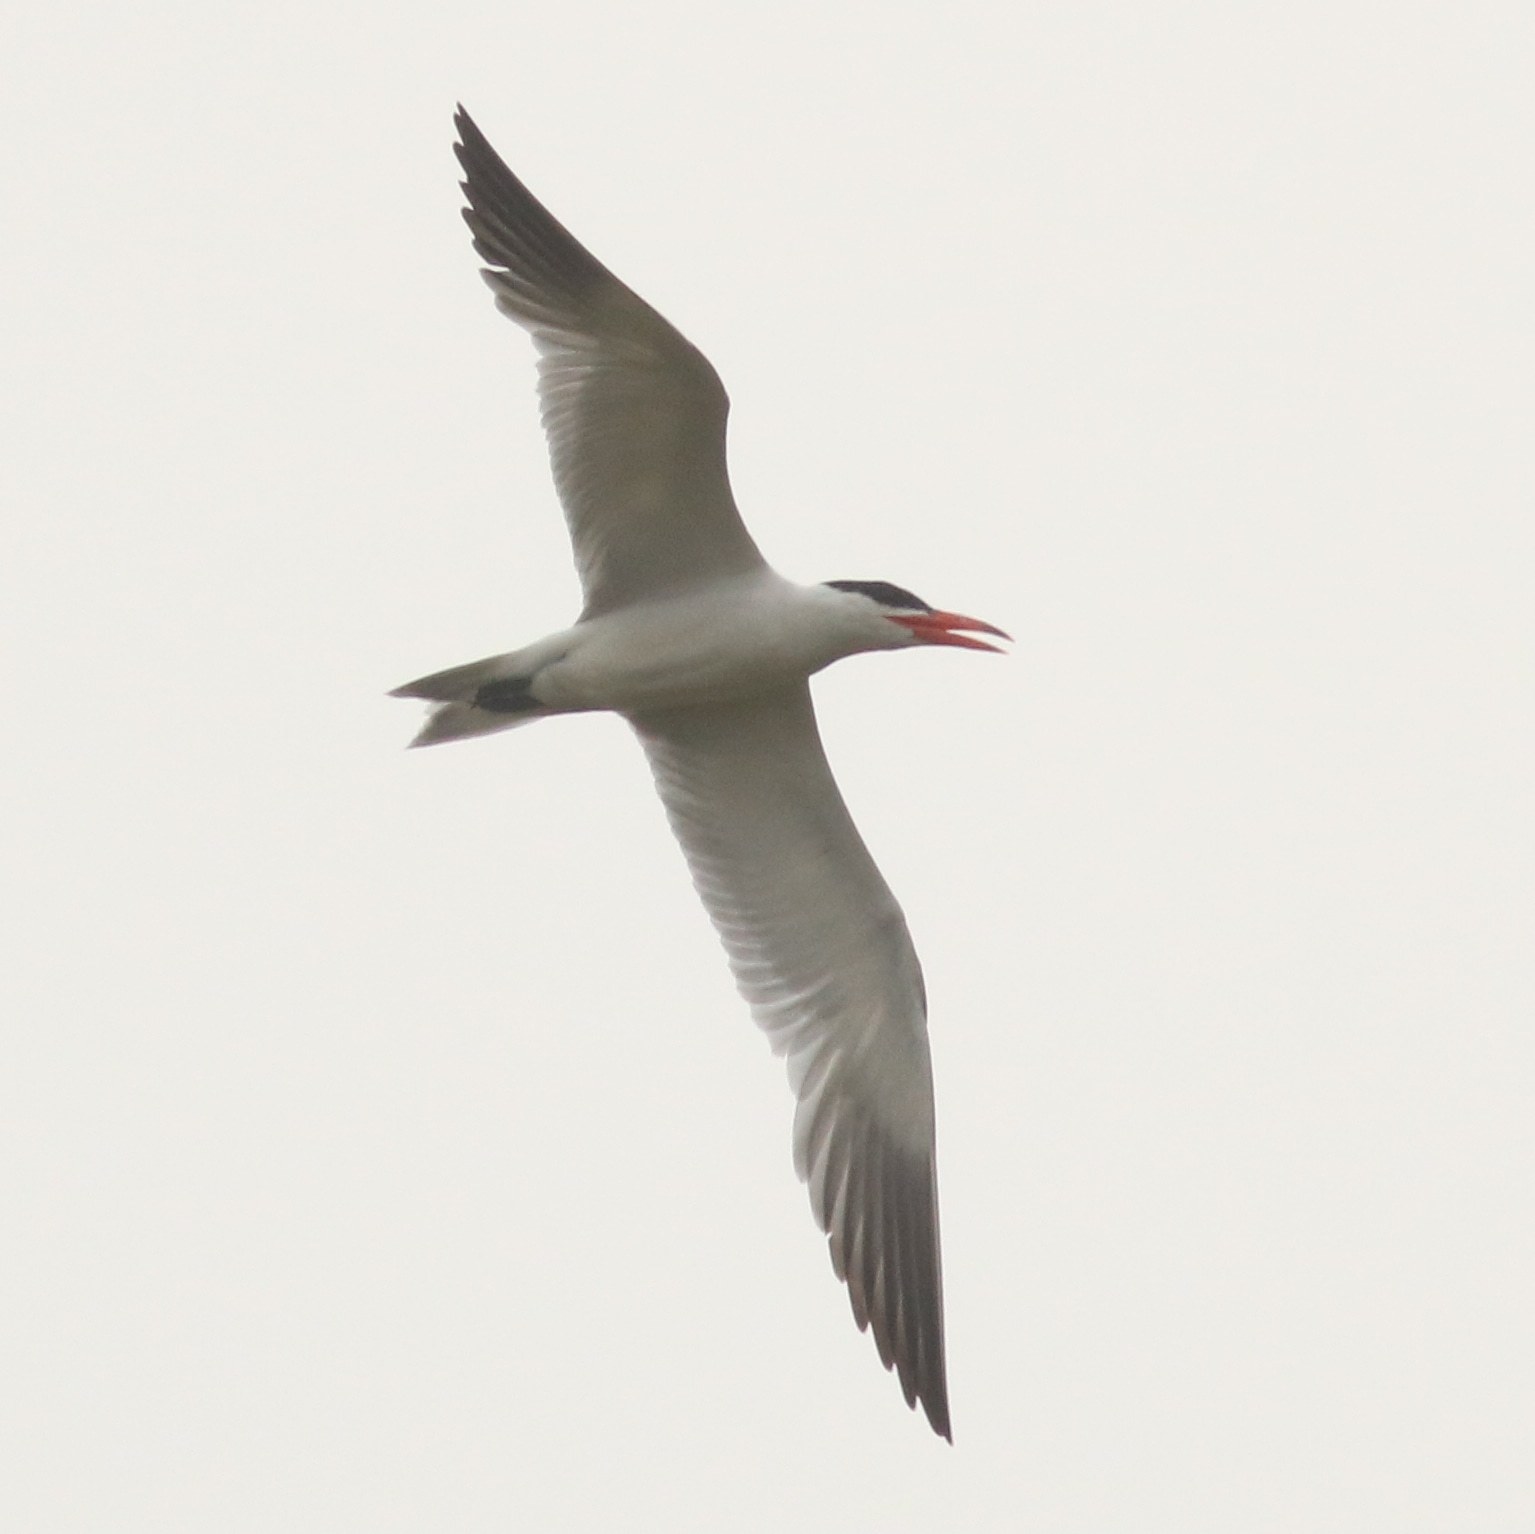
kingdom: Animalia
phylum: Chordata
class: Aves
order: Charadriiformes
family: Laridae
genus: Hydroprogne
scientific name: Hydroprogne caspia
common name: Caspian tern
